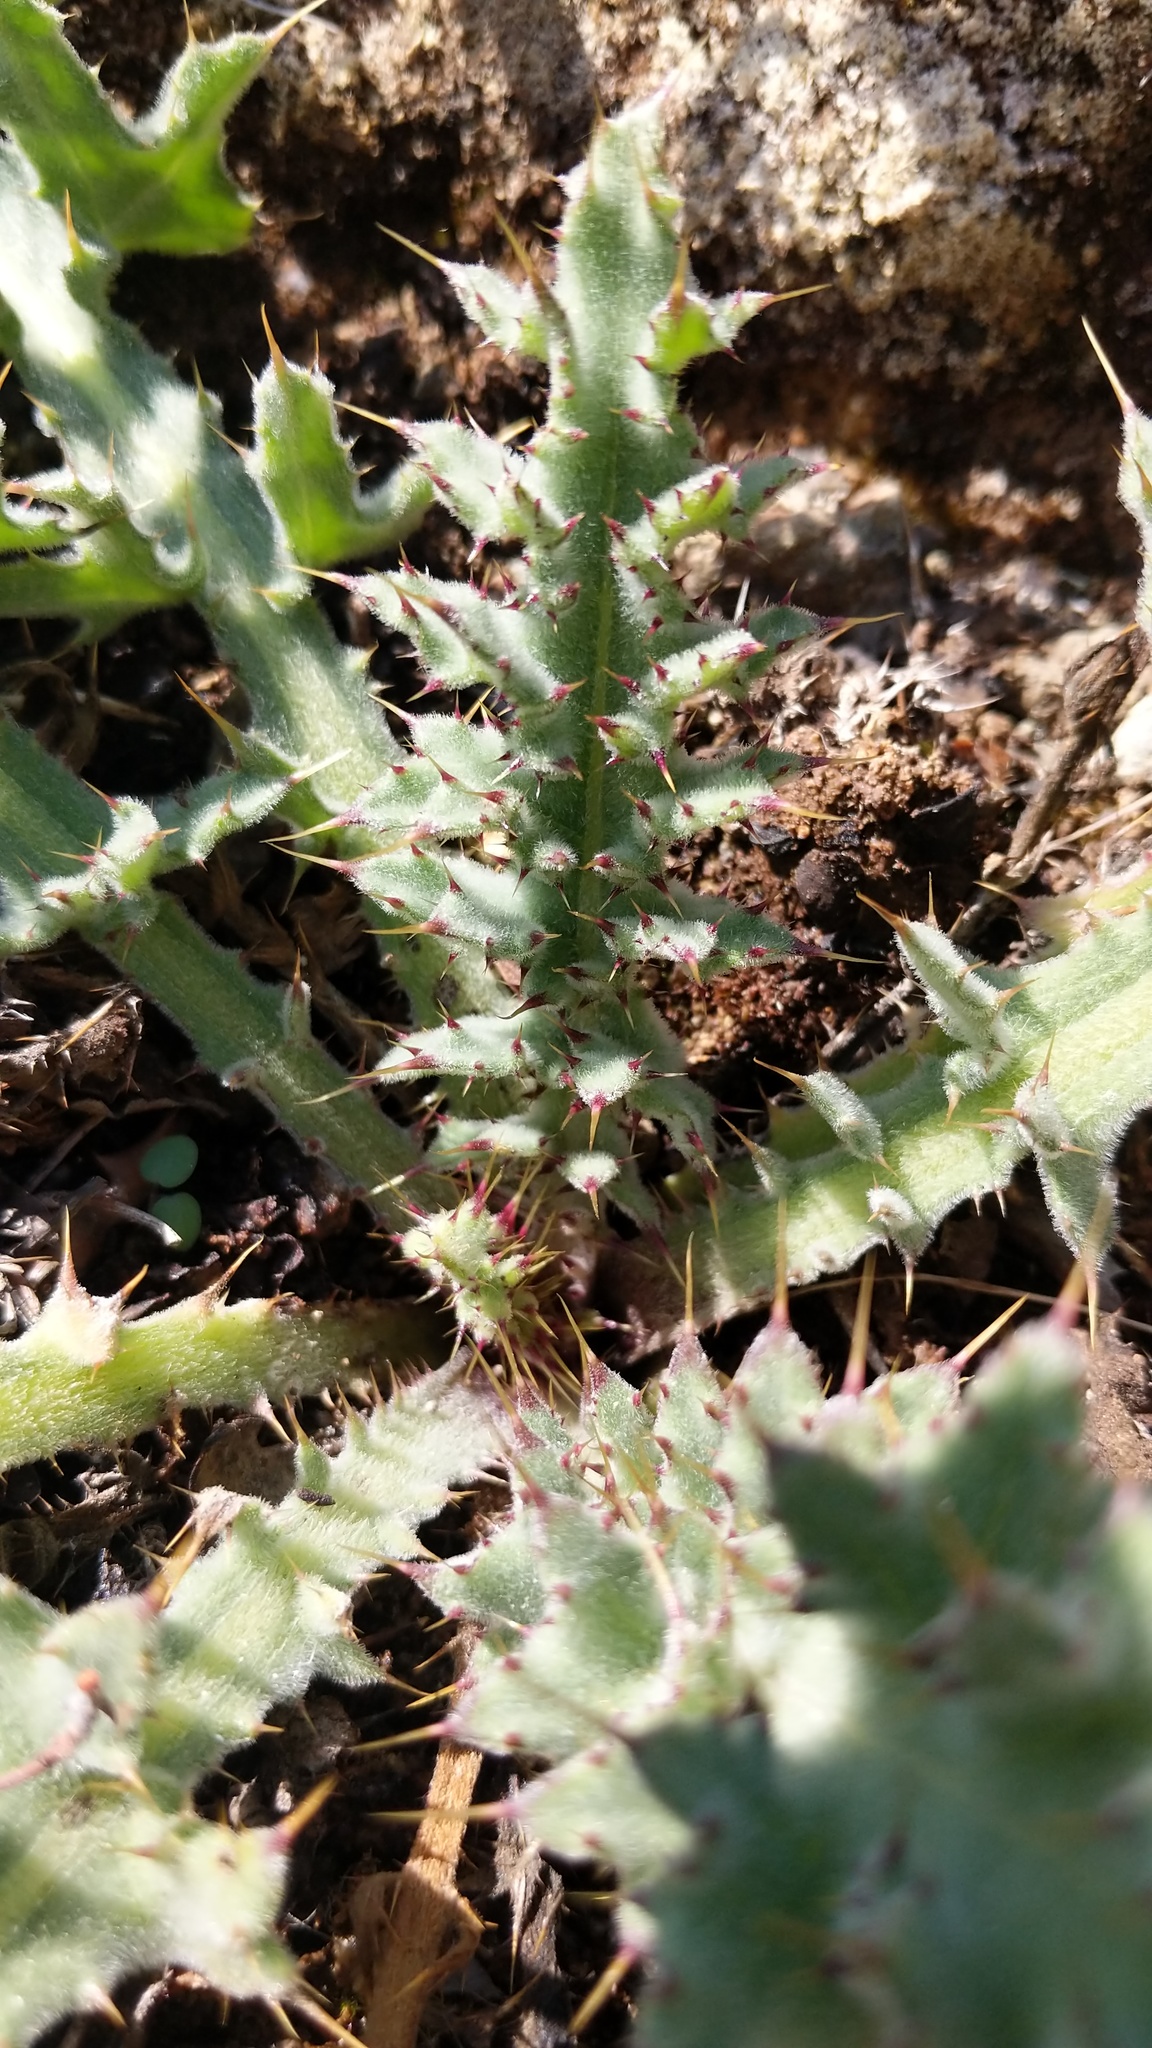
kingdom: Plantae
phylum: Tracheophyta
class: Magnoliopsida
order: Asterales
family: Asteraceae
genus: Cirsium
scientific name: Cirsium fontinale
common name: Fountain thistle
